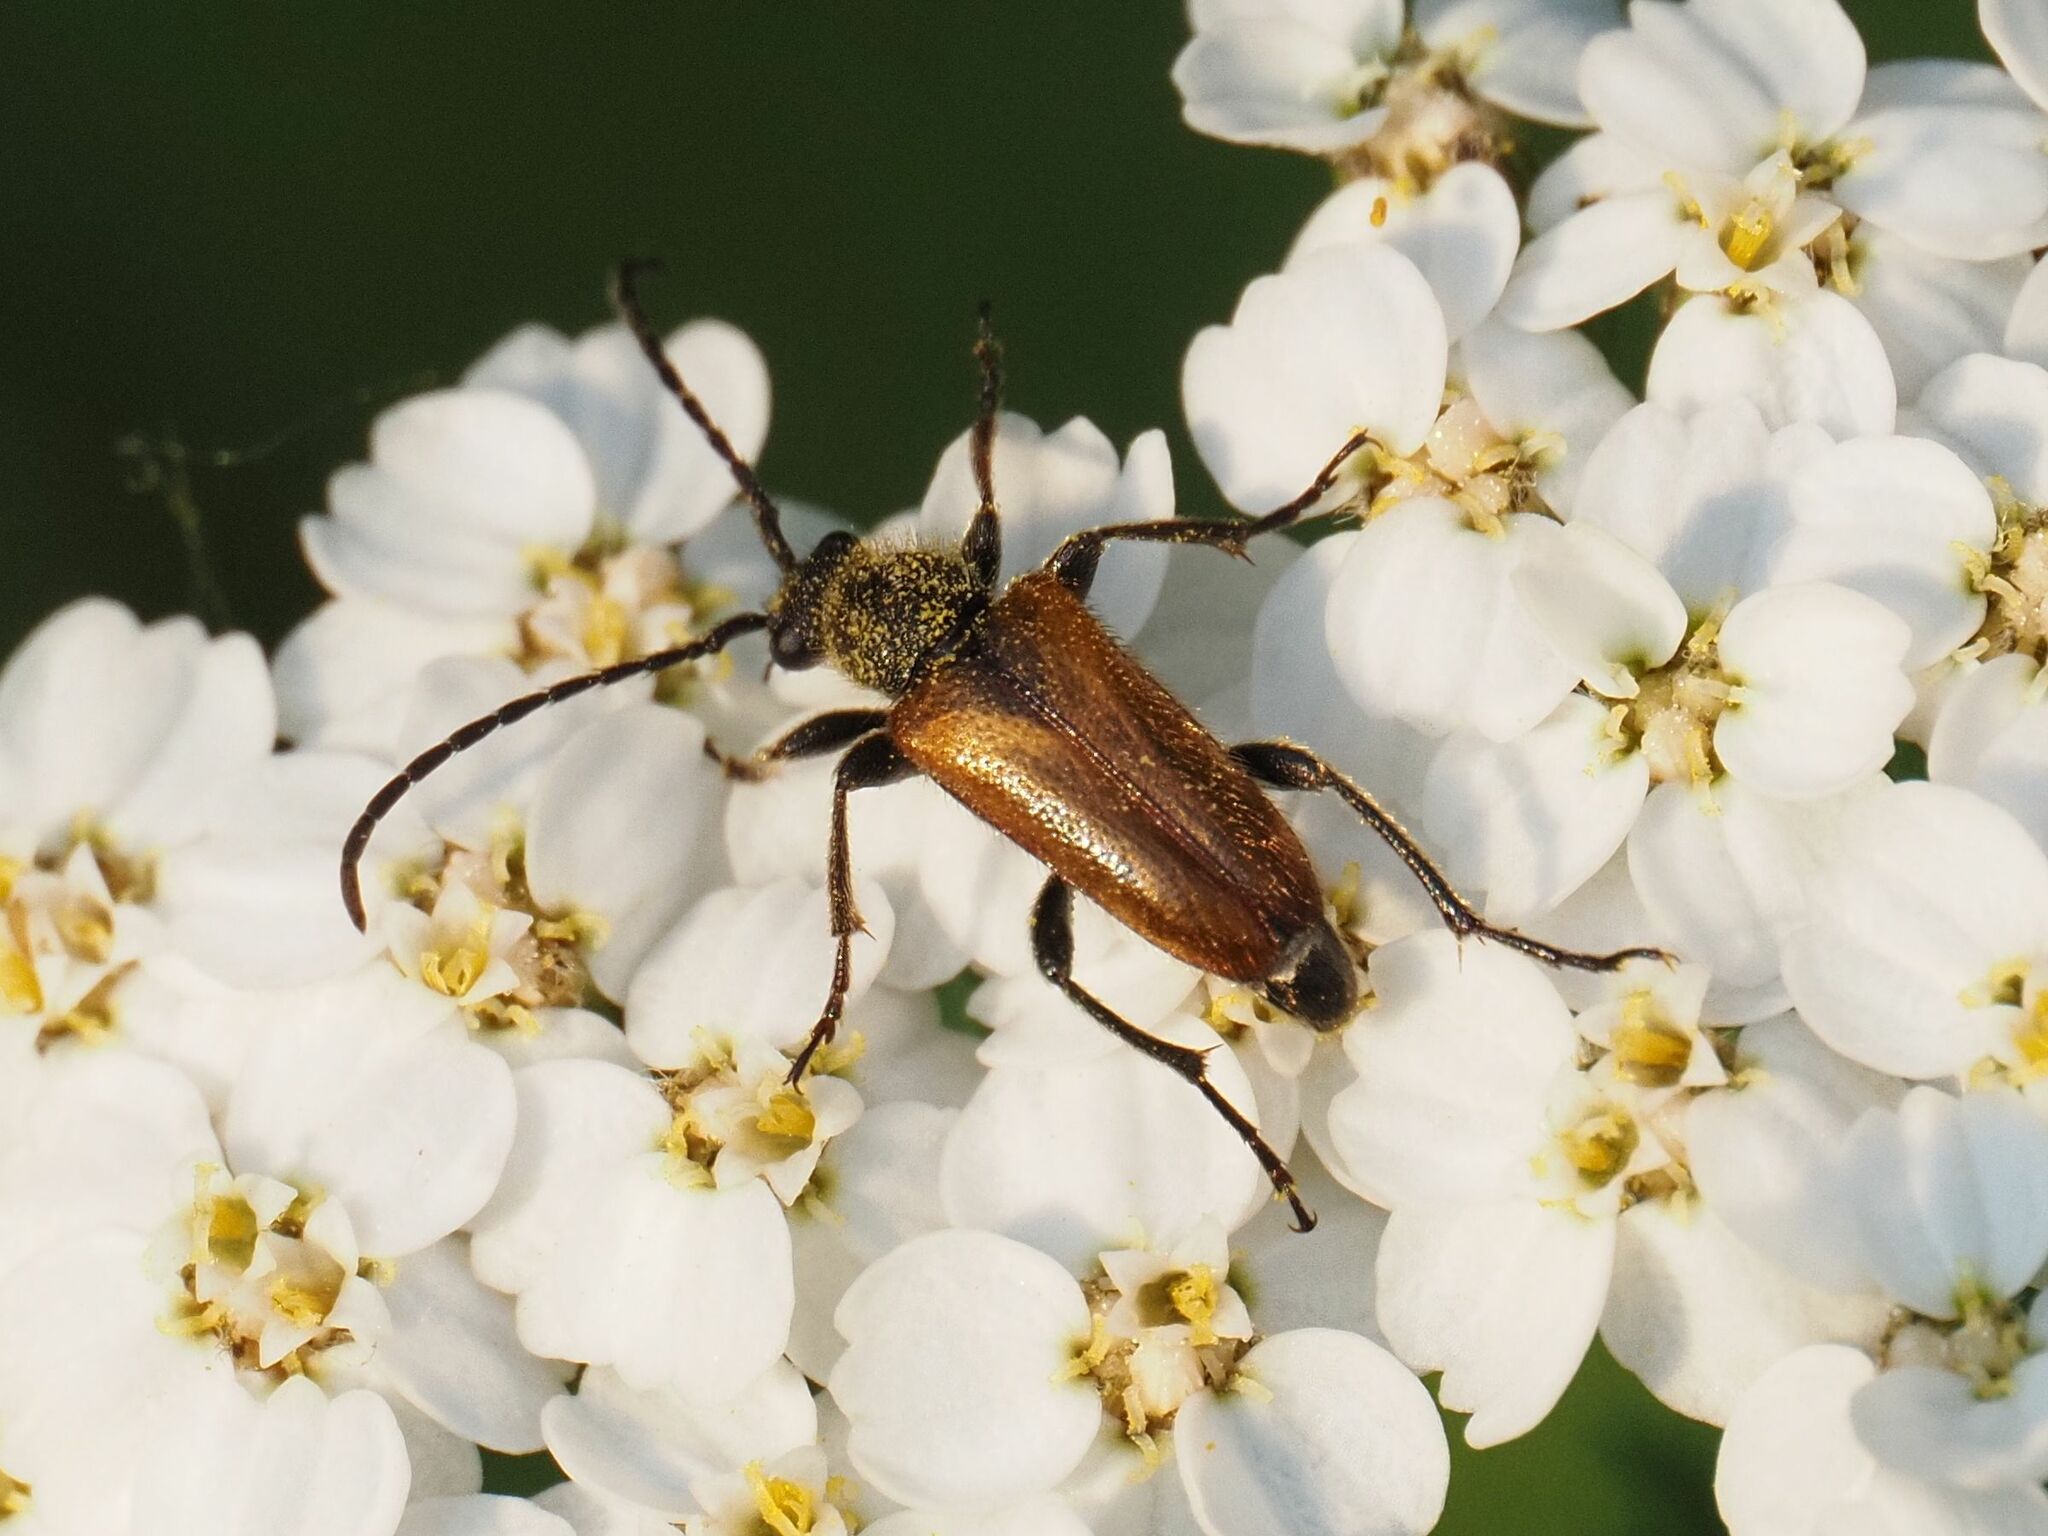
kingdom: Animalia
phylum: Arthropoda
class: Insecta
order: Coleoptera
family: Cerambycidae
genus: Pseudovadonia
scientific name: Pseudovadonia livida
